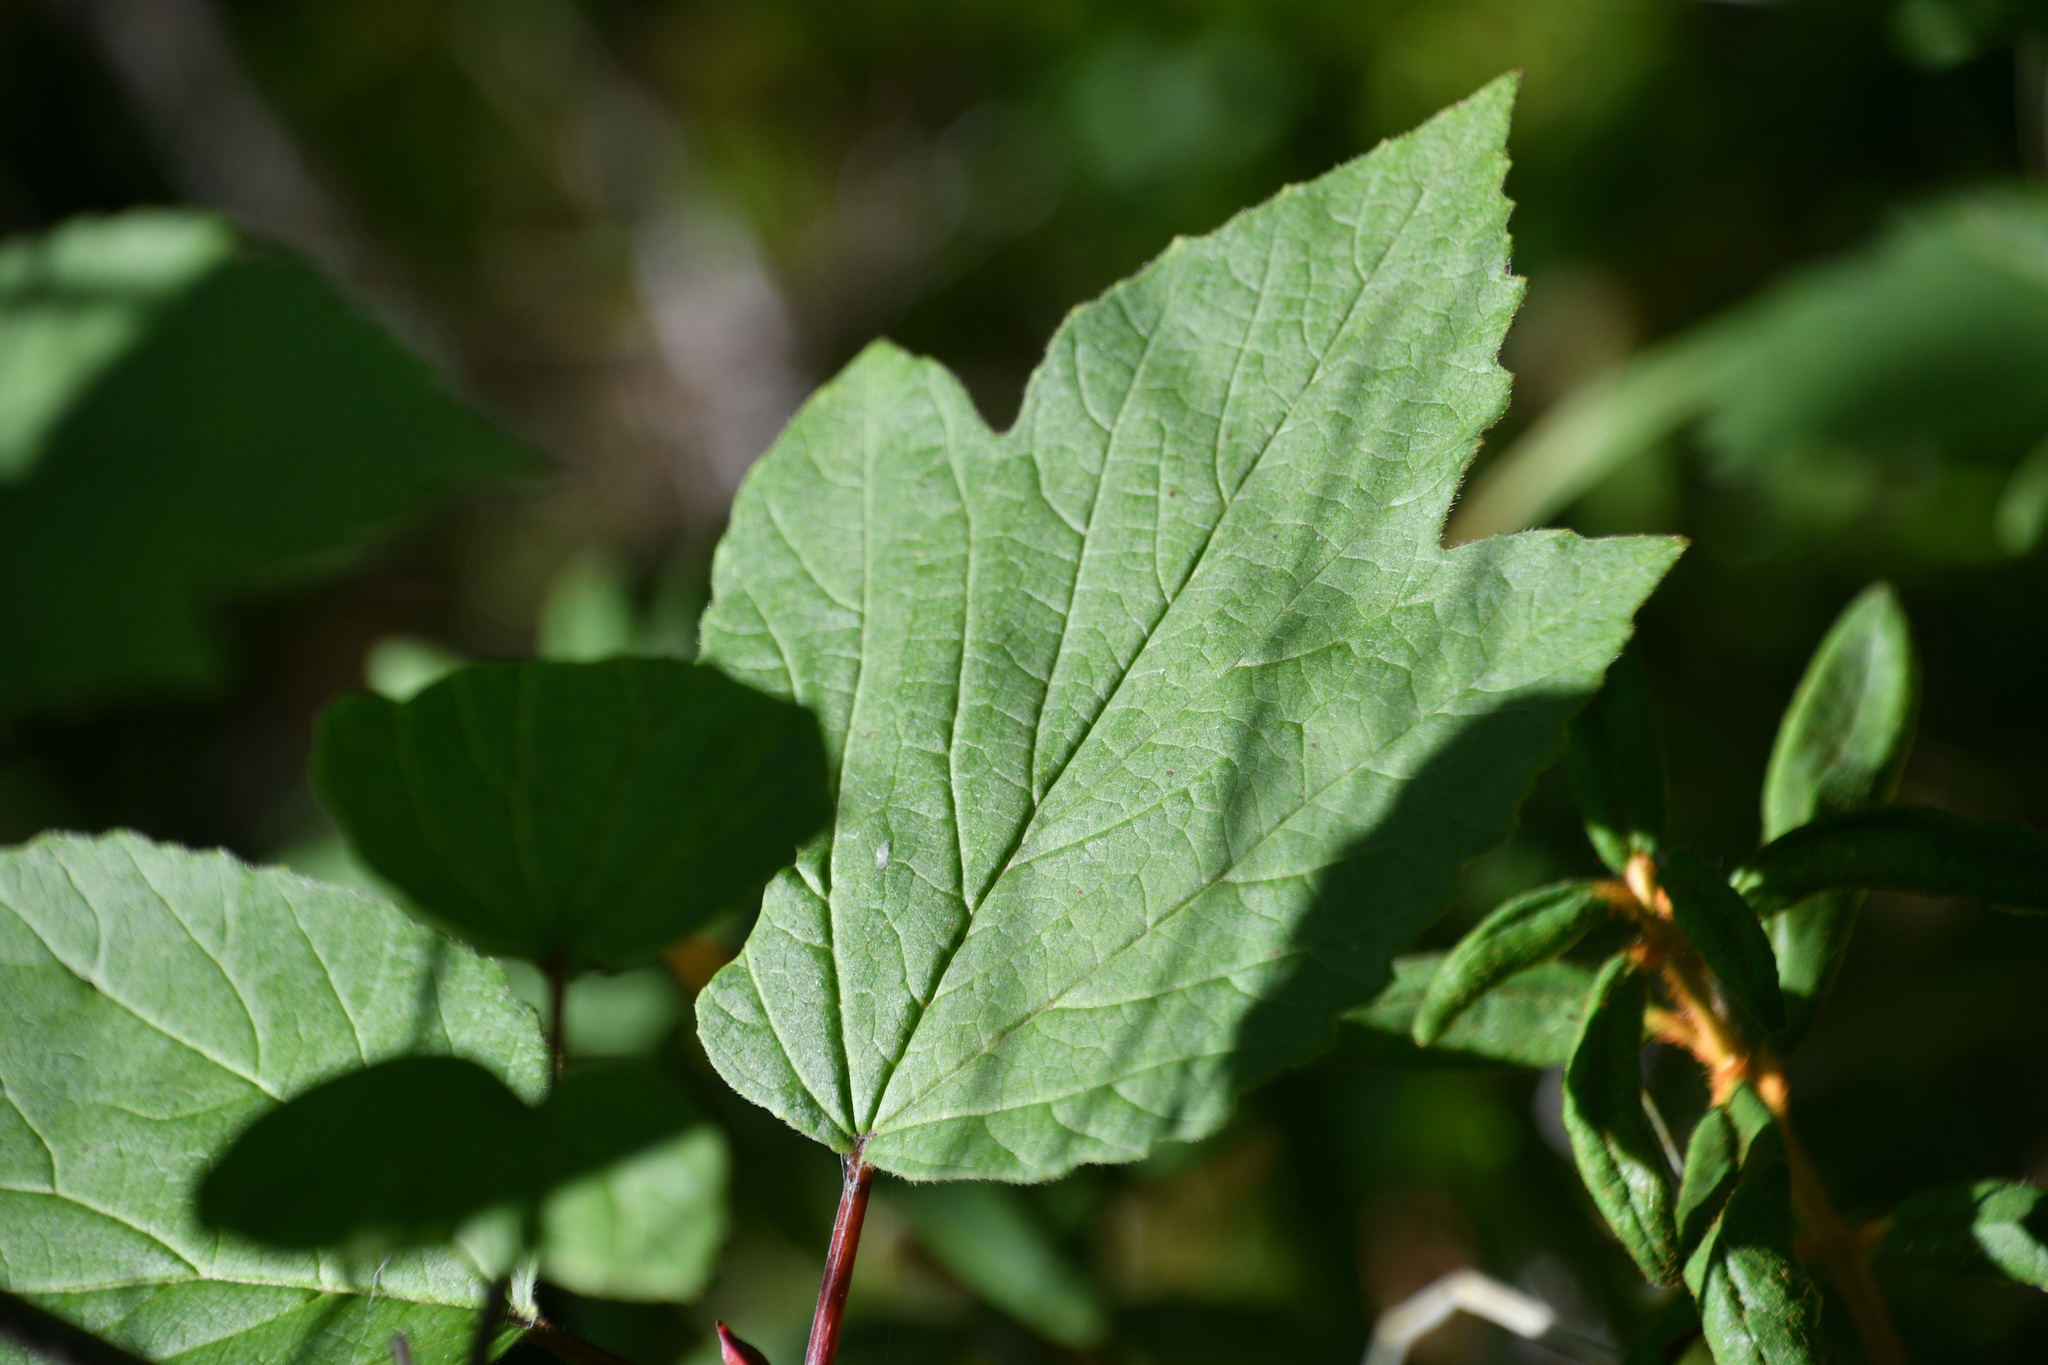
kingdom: Plantae
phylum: Tracheophyta
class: Magnoliopsida
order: Dipsacales
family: Viburnaceae
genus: Viburnum
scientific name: Viburnum edule
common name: Mooseberry
